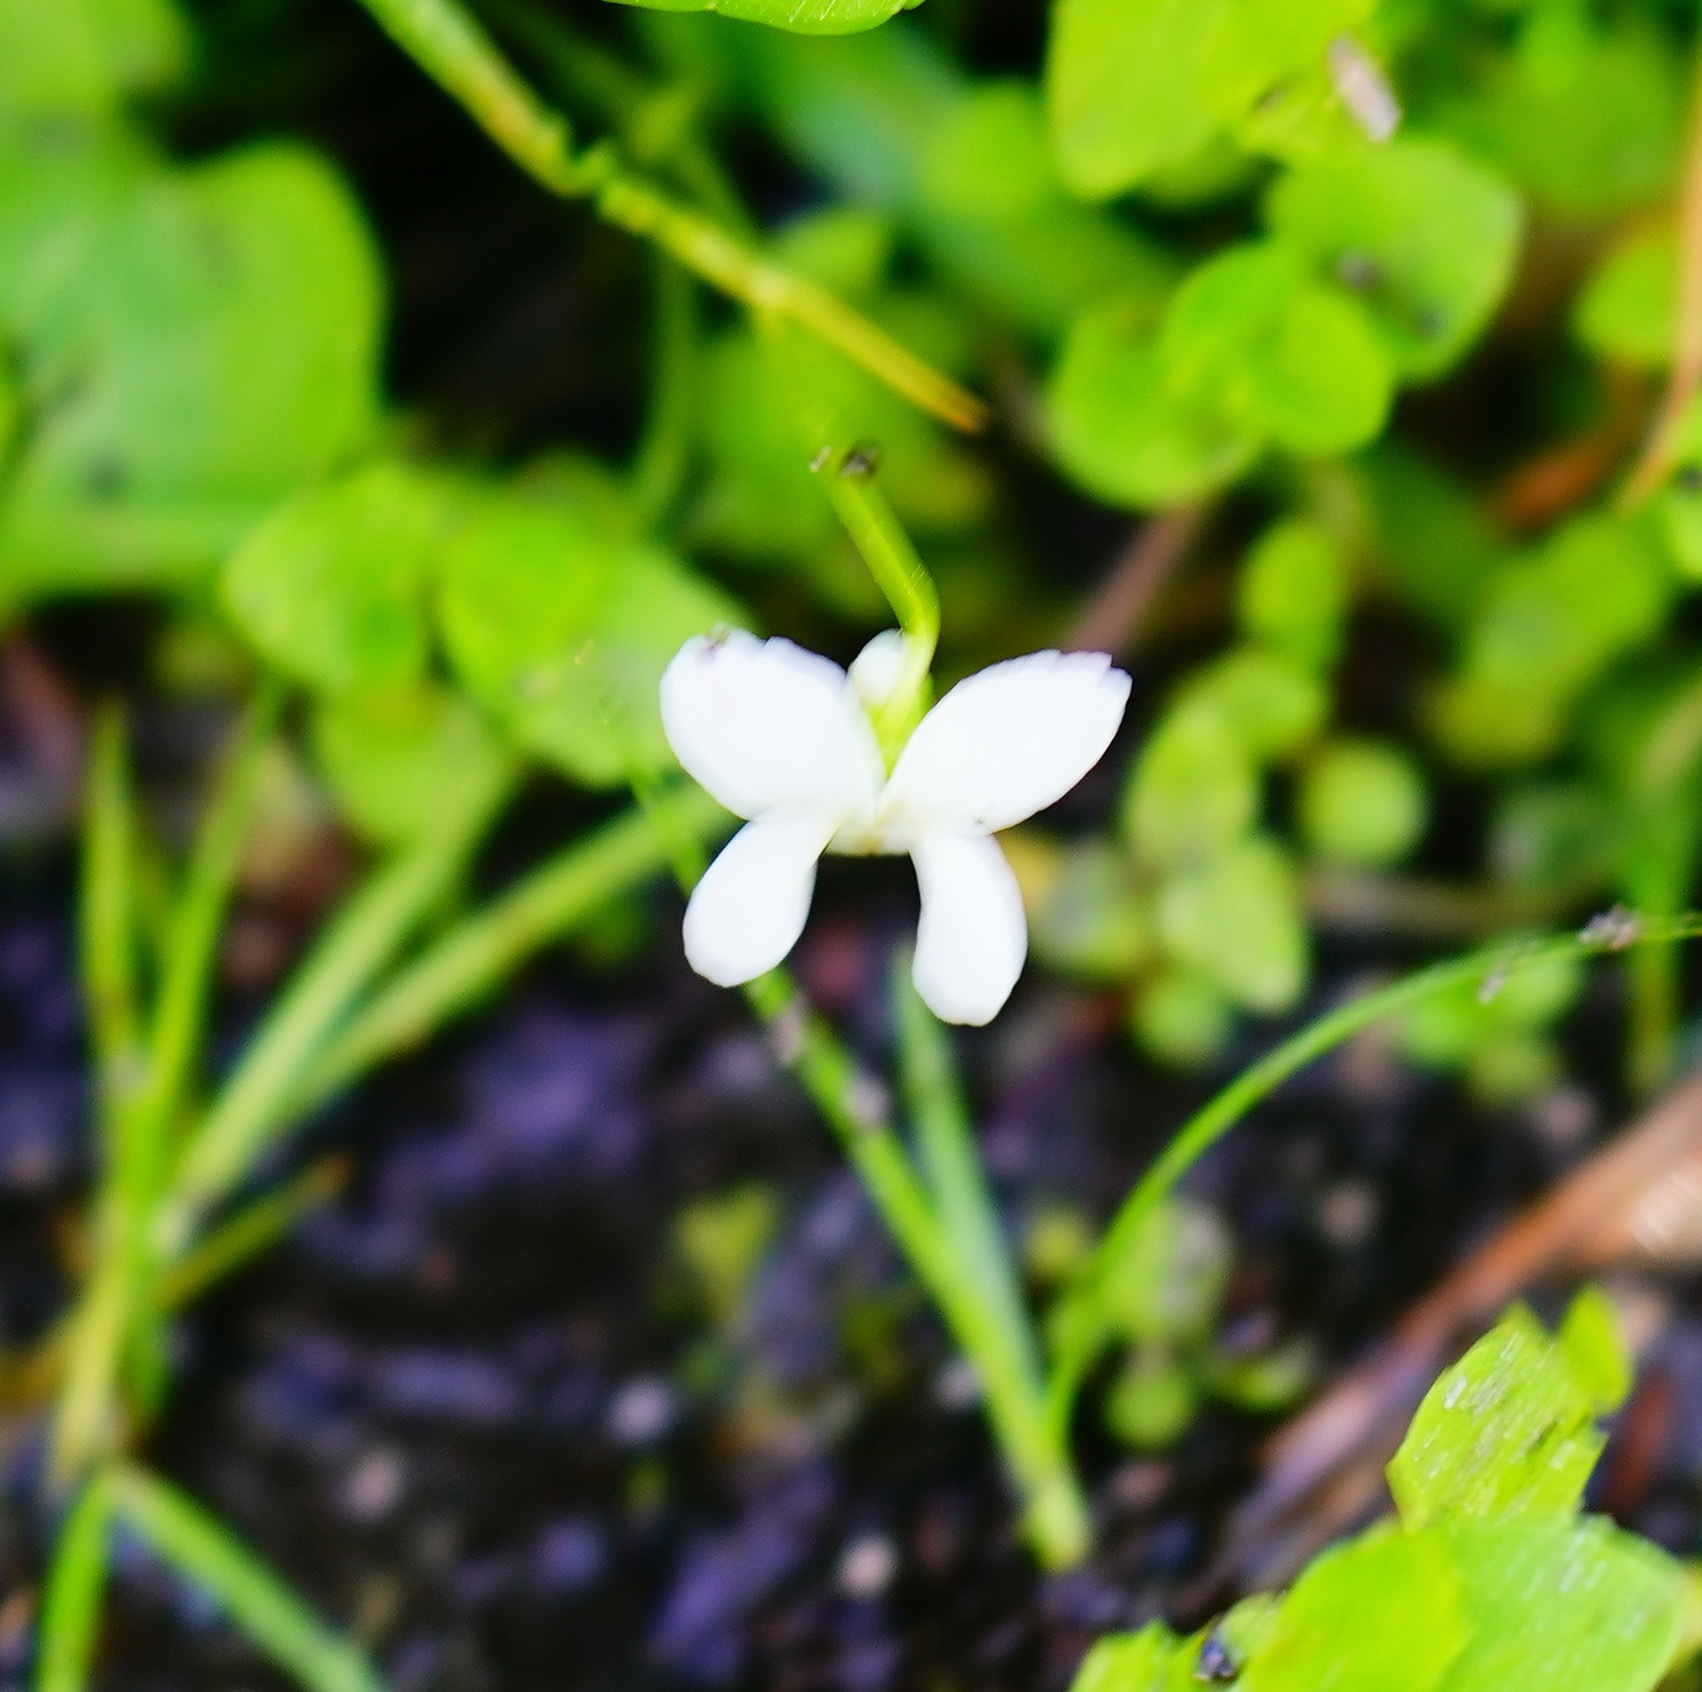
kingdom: Plantae
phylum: Tracheophyta
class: Magnoliopsida
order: Malpighiales
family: Violaceae
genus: Viola
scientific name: Viola macloskeyi
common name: Macloskey's violet
